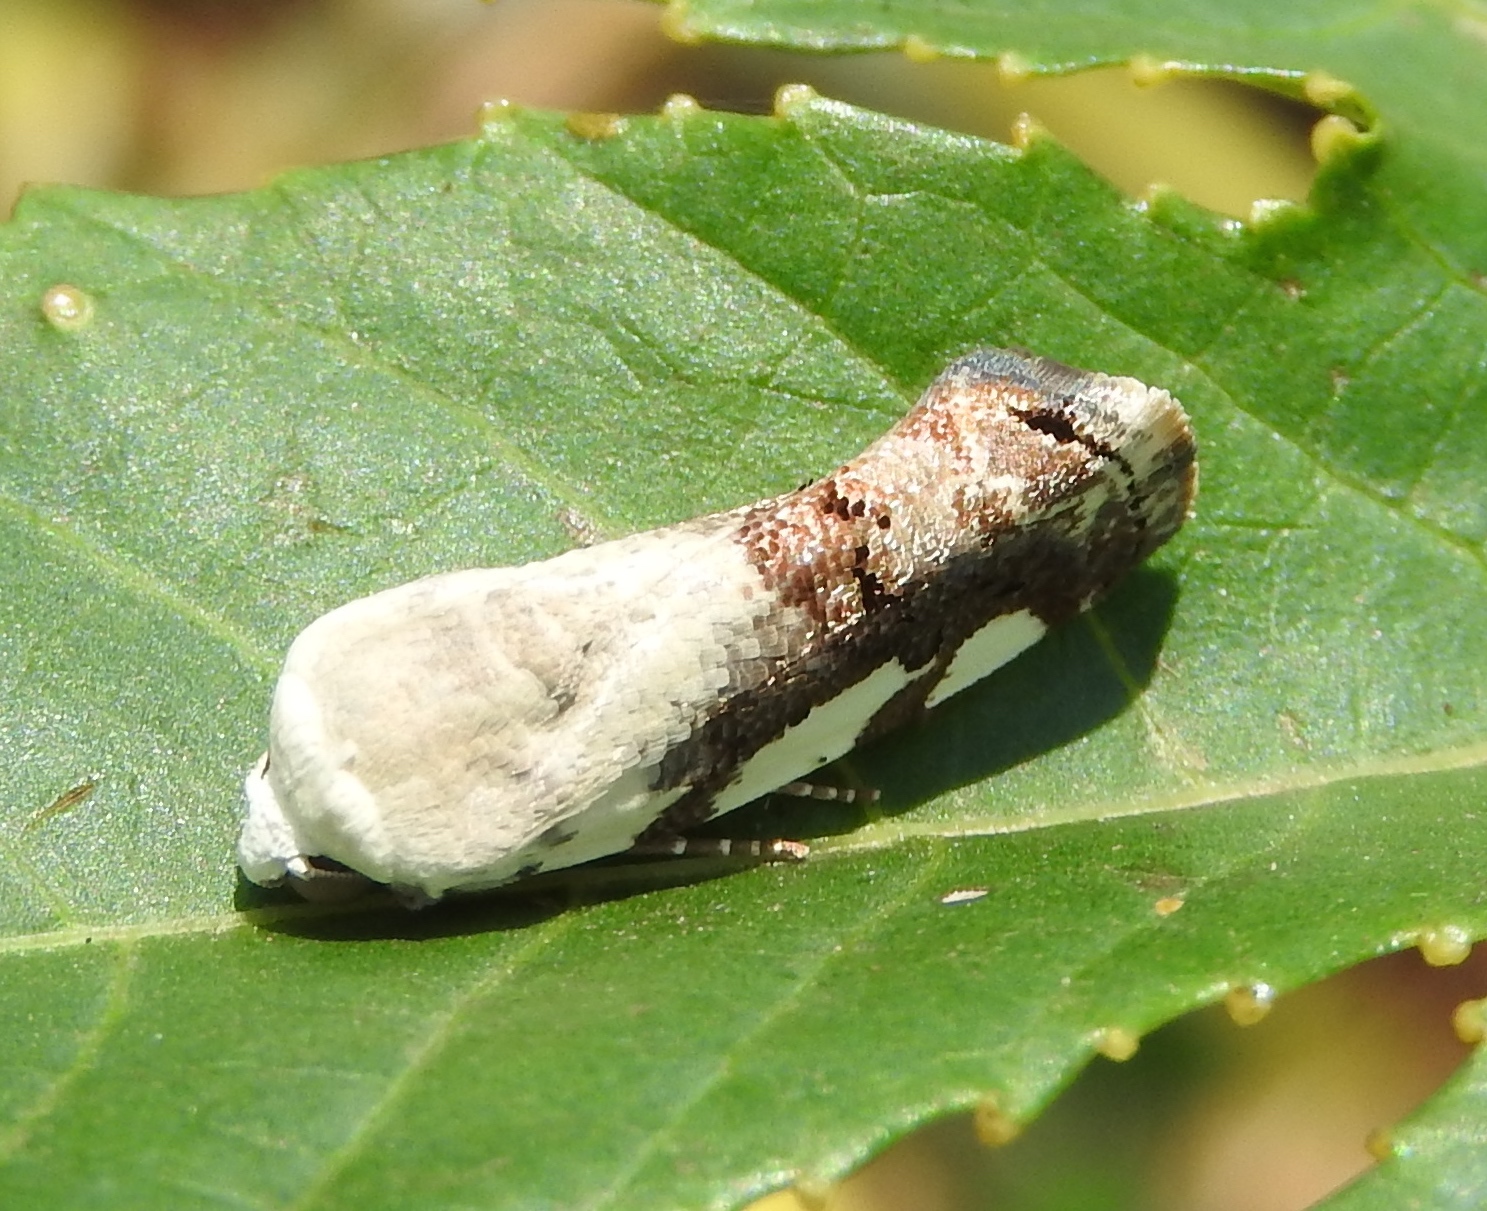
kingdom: Animalia
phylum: Arthropoda
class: Insecta
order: Lepidoptera
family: Noctuidae
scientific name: Noctuidae
